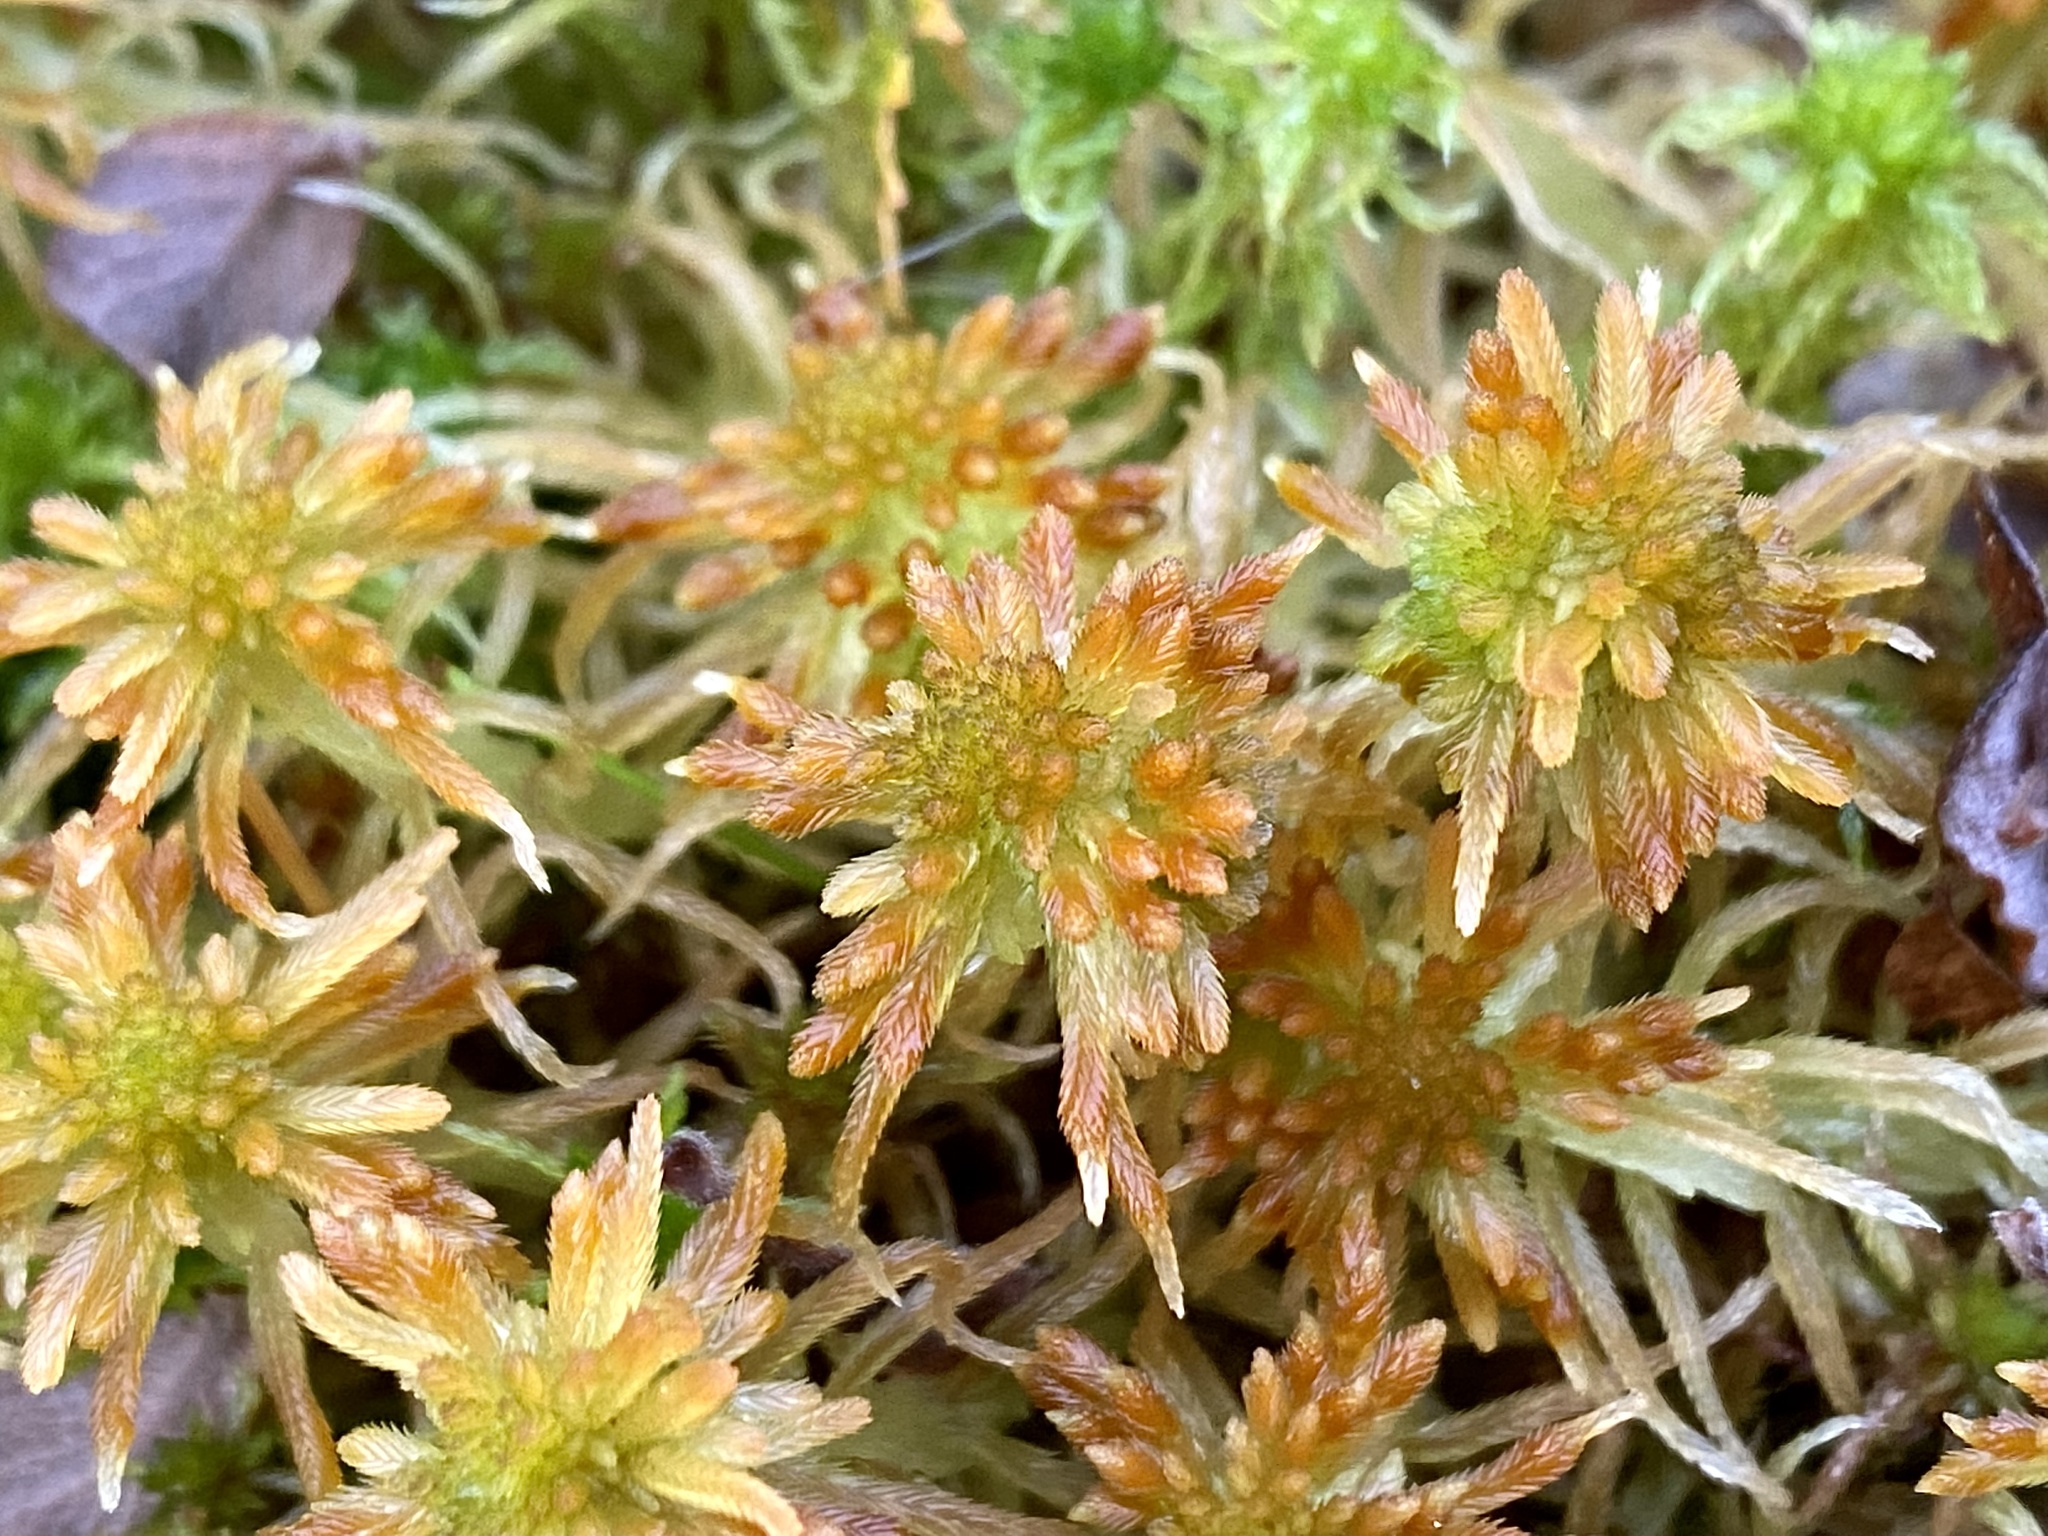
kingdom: Plantae
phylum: Bryophyta
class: Sphagnopsida
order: Sphagnales
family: Sphagnaceae
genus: Sphagnum
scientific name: Sphagnum fallax
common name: Flat-top peat moss
